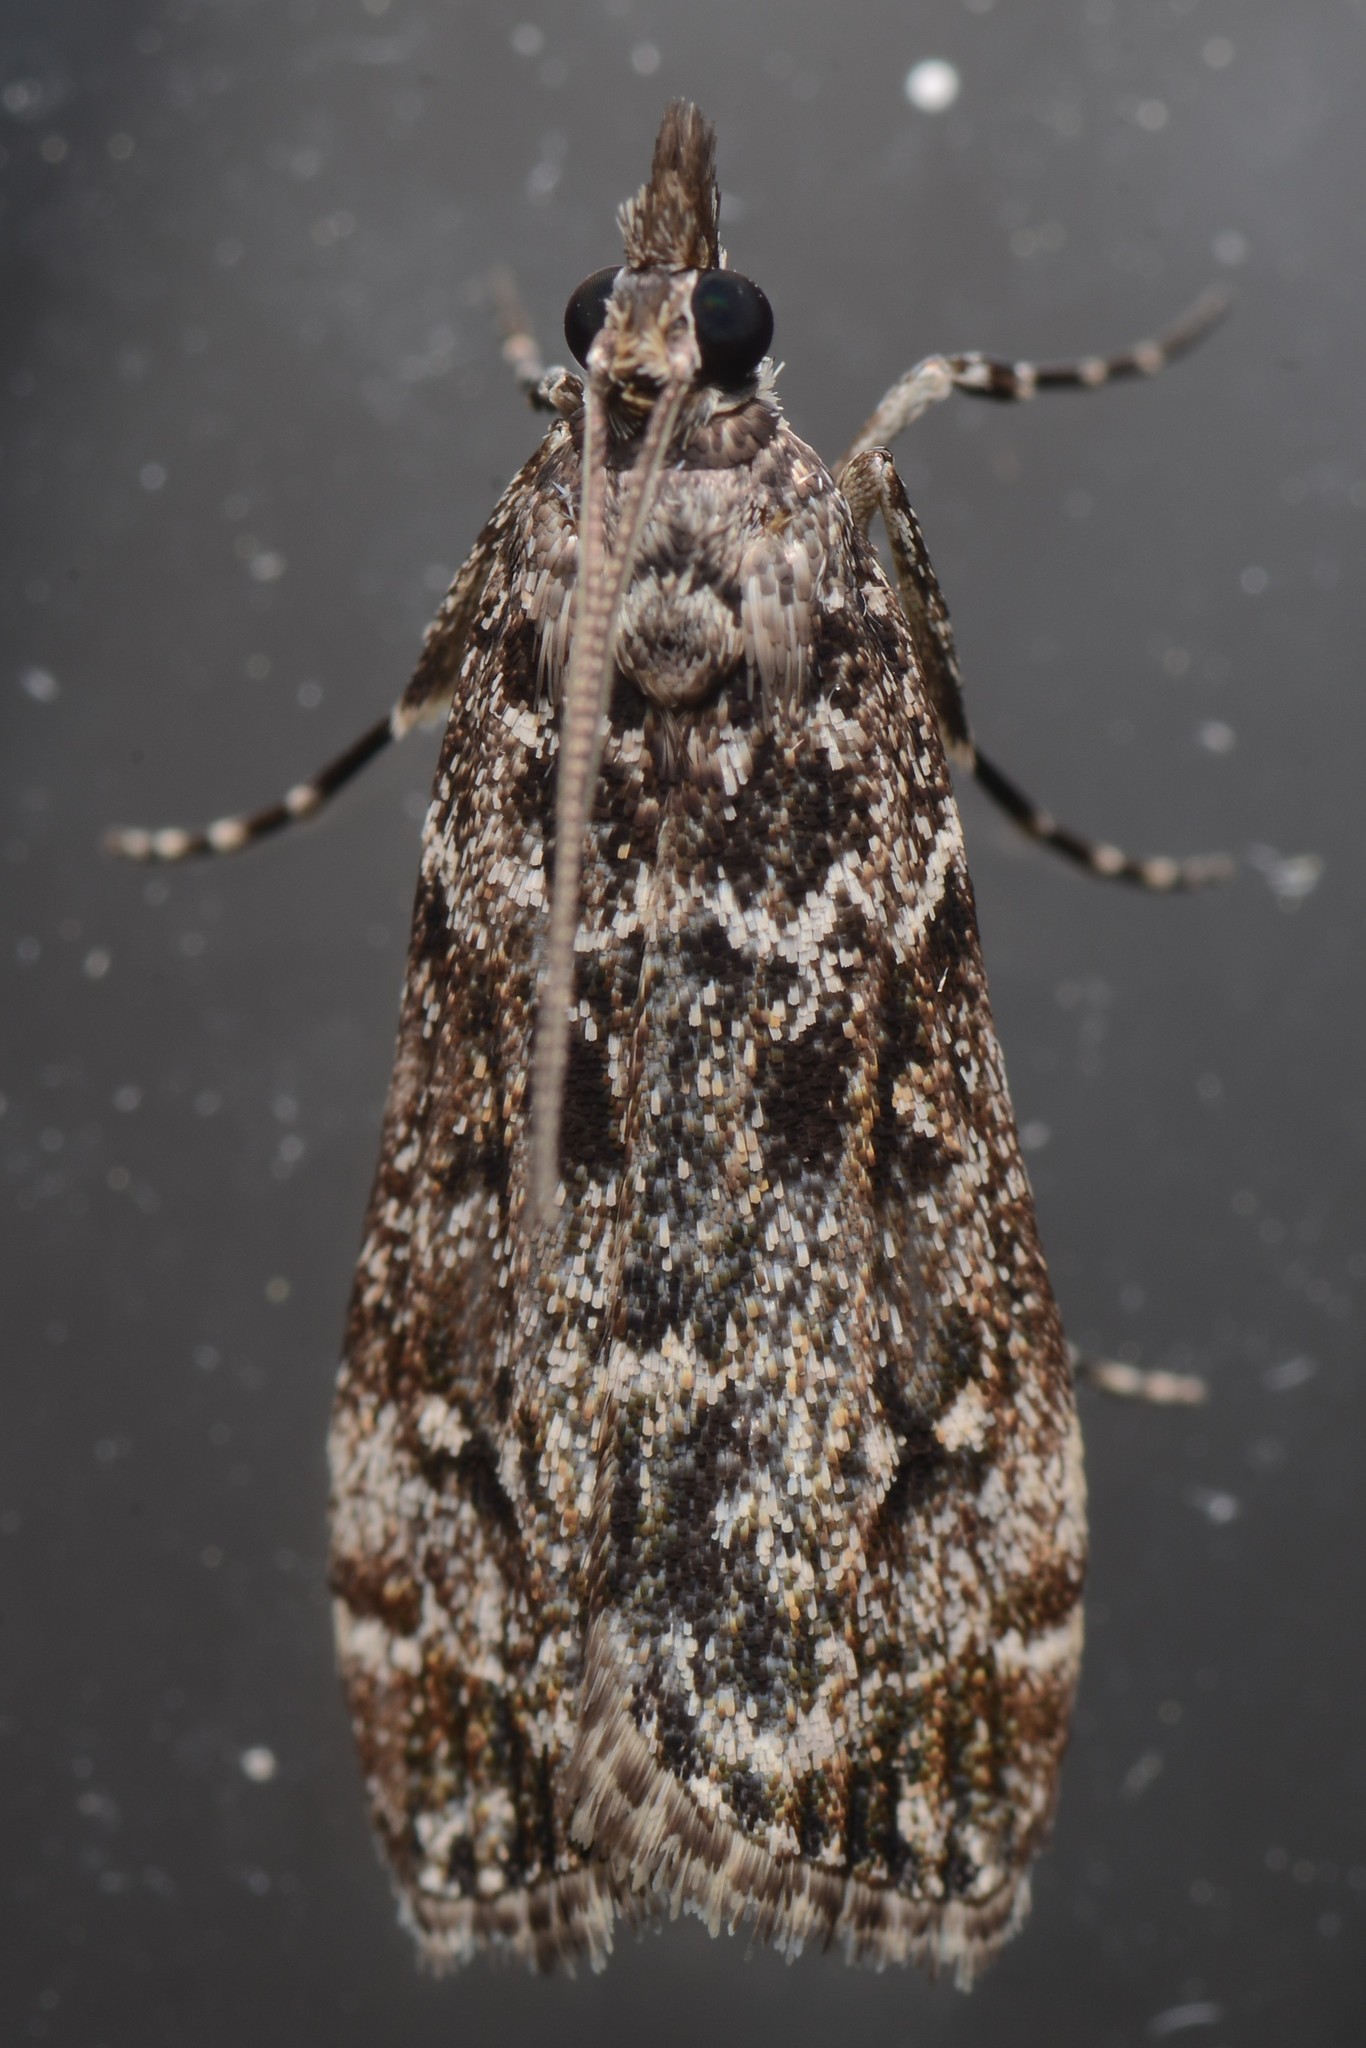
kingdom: Animalia
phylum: Arthropoda
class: Insecta
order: Lepidoptera
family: Crambidae
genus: Eudonia
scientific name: Eudonia philerga
